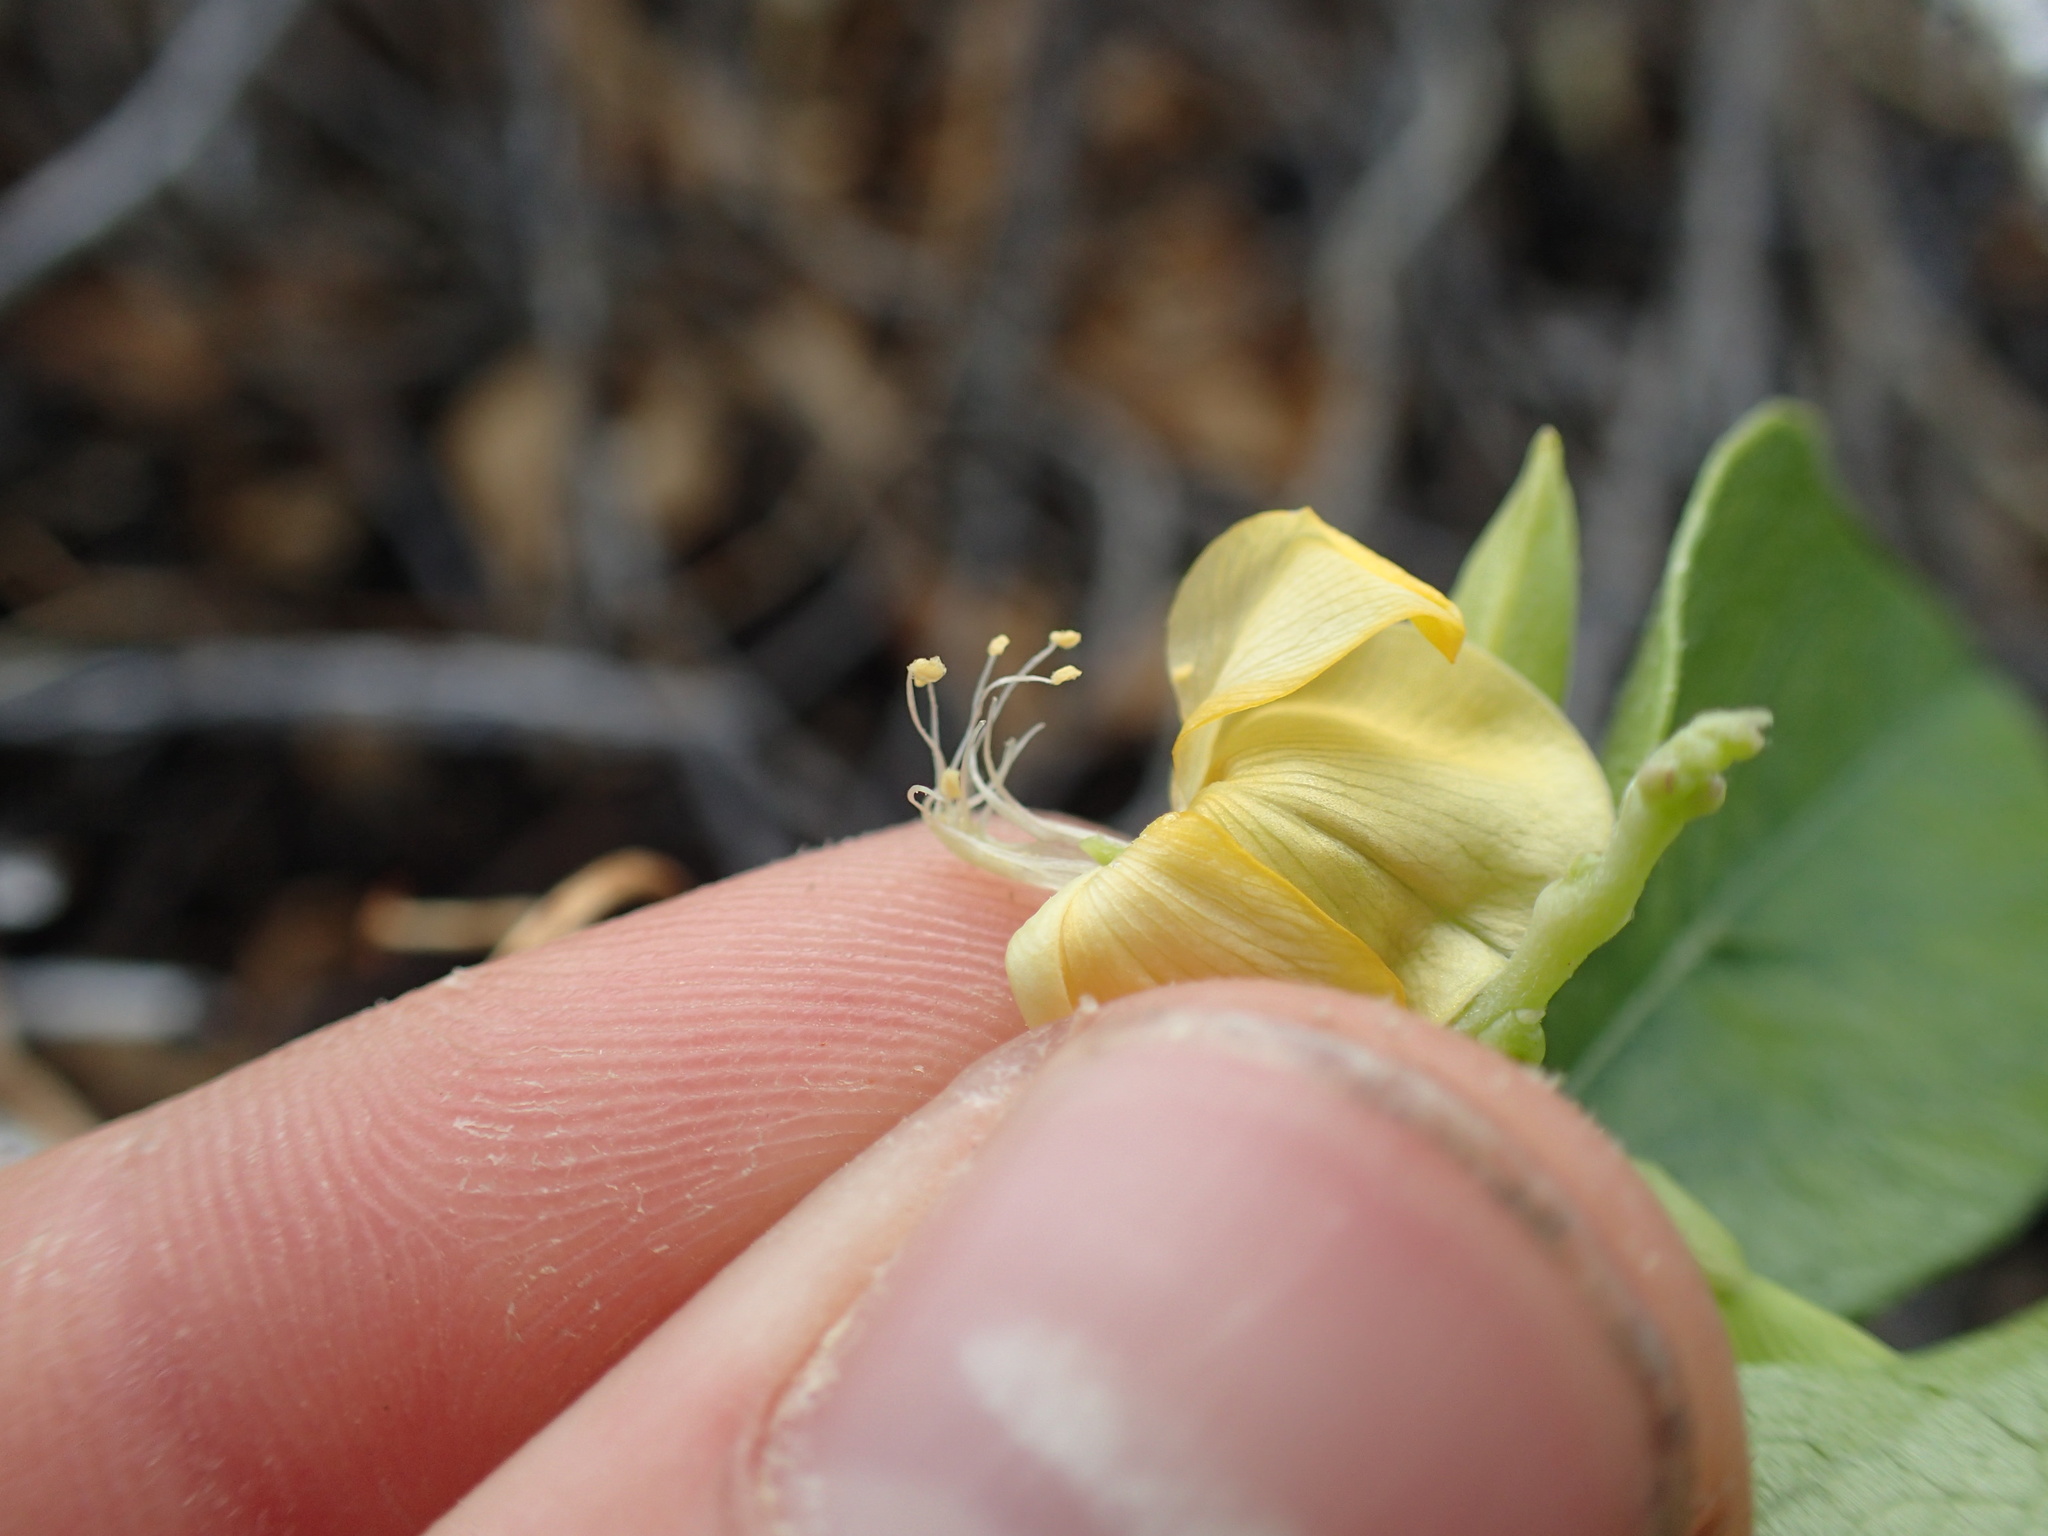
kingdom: Plantae
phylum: Tracheophyta
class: Magnoliopsida
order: Fabales
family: Fabaceae
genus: Vigna
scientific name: Vigna marina
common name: Dune-bean
